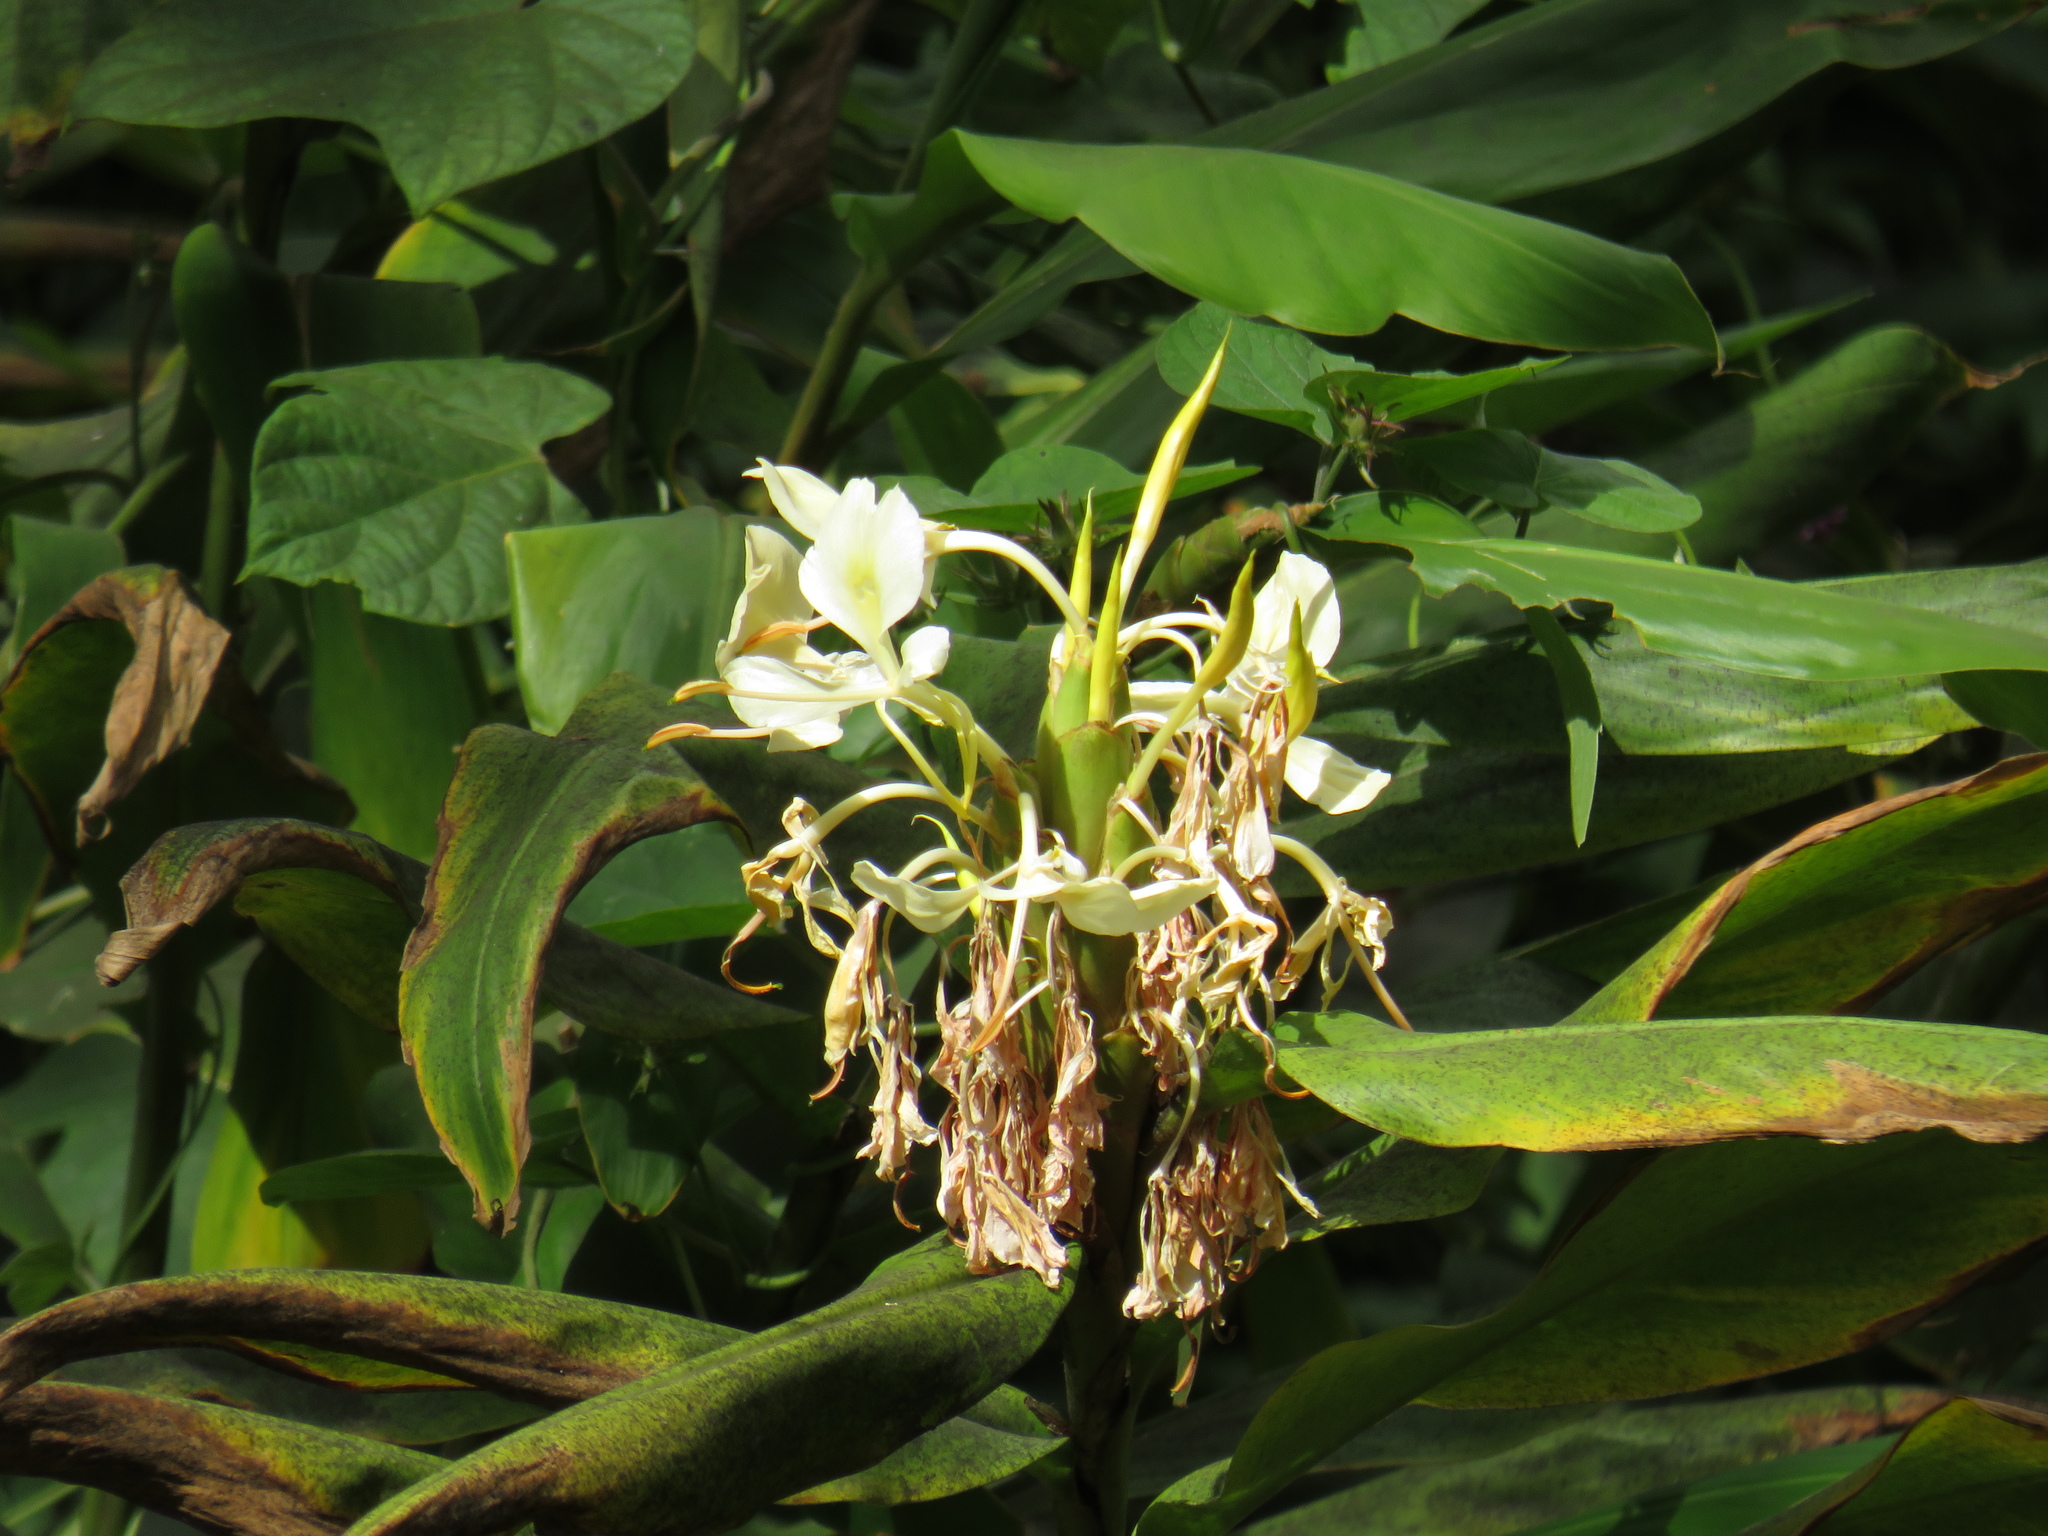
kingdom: Plantae
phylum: Tracheophyta
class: Liliopsida
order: Zingiberales
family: Zingiberaceae
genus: Hedychium
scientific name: Hedychium flavescens
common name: Yellow ginger
